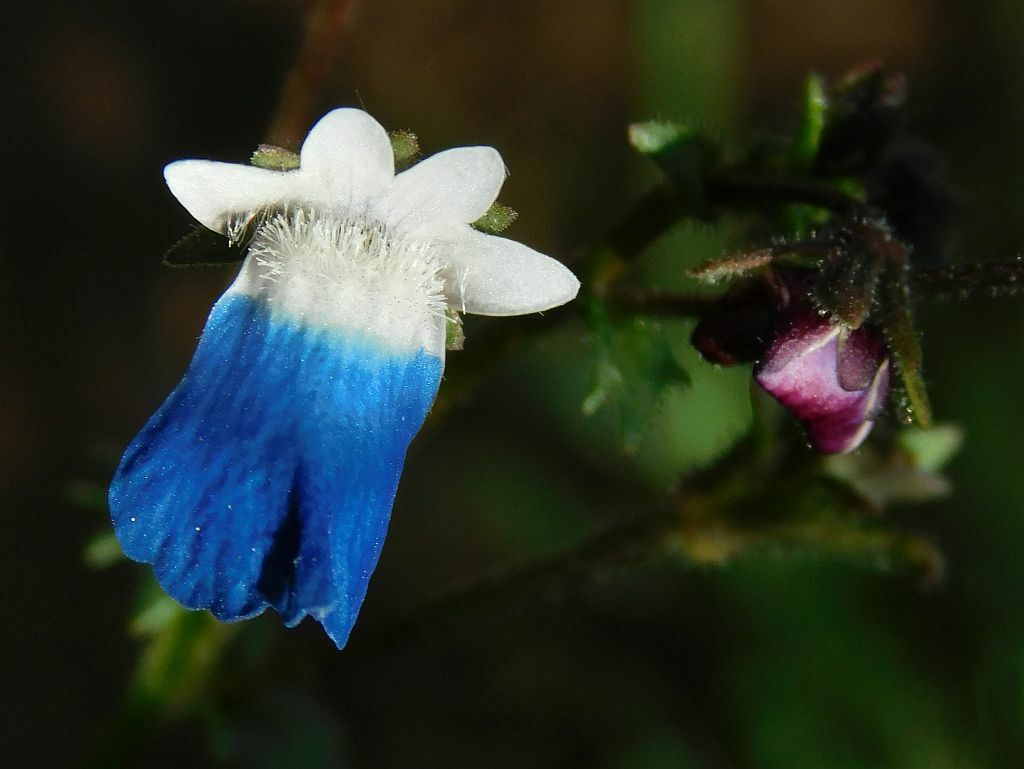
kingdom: Plantae
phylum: Tracheophyta
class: Magnoliopsida
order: Lamiales
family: Scrophulariaceae
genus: Nemesia
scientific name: Nemesia barbata
